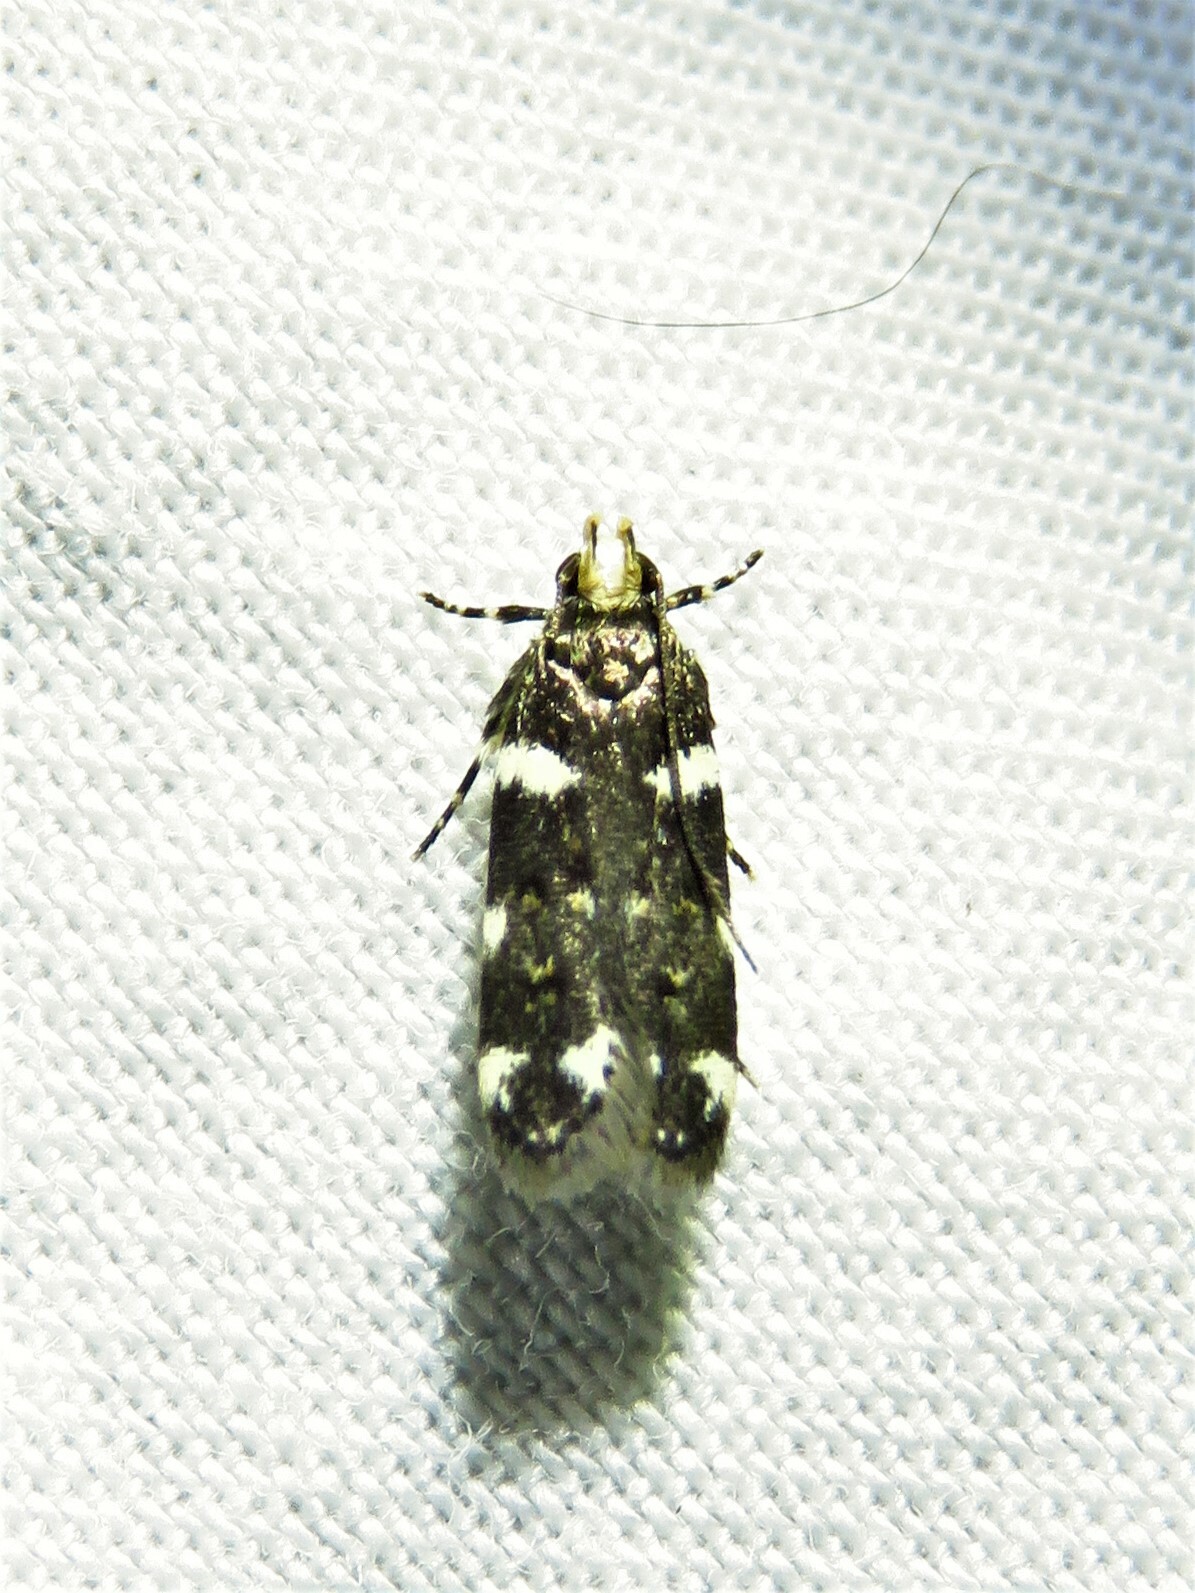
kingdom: Animalia
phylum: Arthropoda
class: Insecta
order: Lepidoptera
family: Gelechiidae
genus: Fascista
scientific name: Fascista cercerisella
